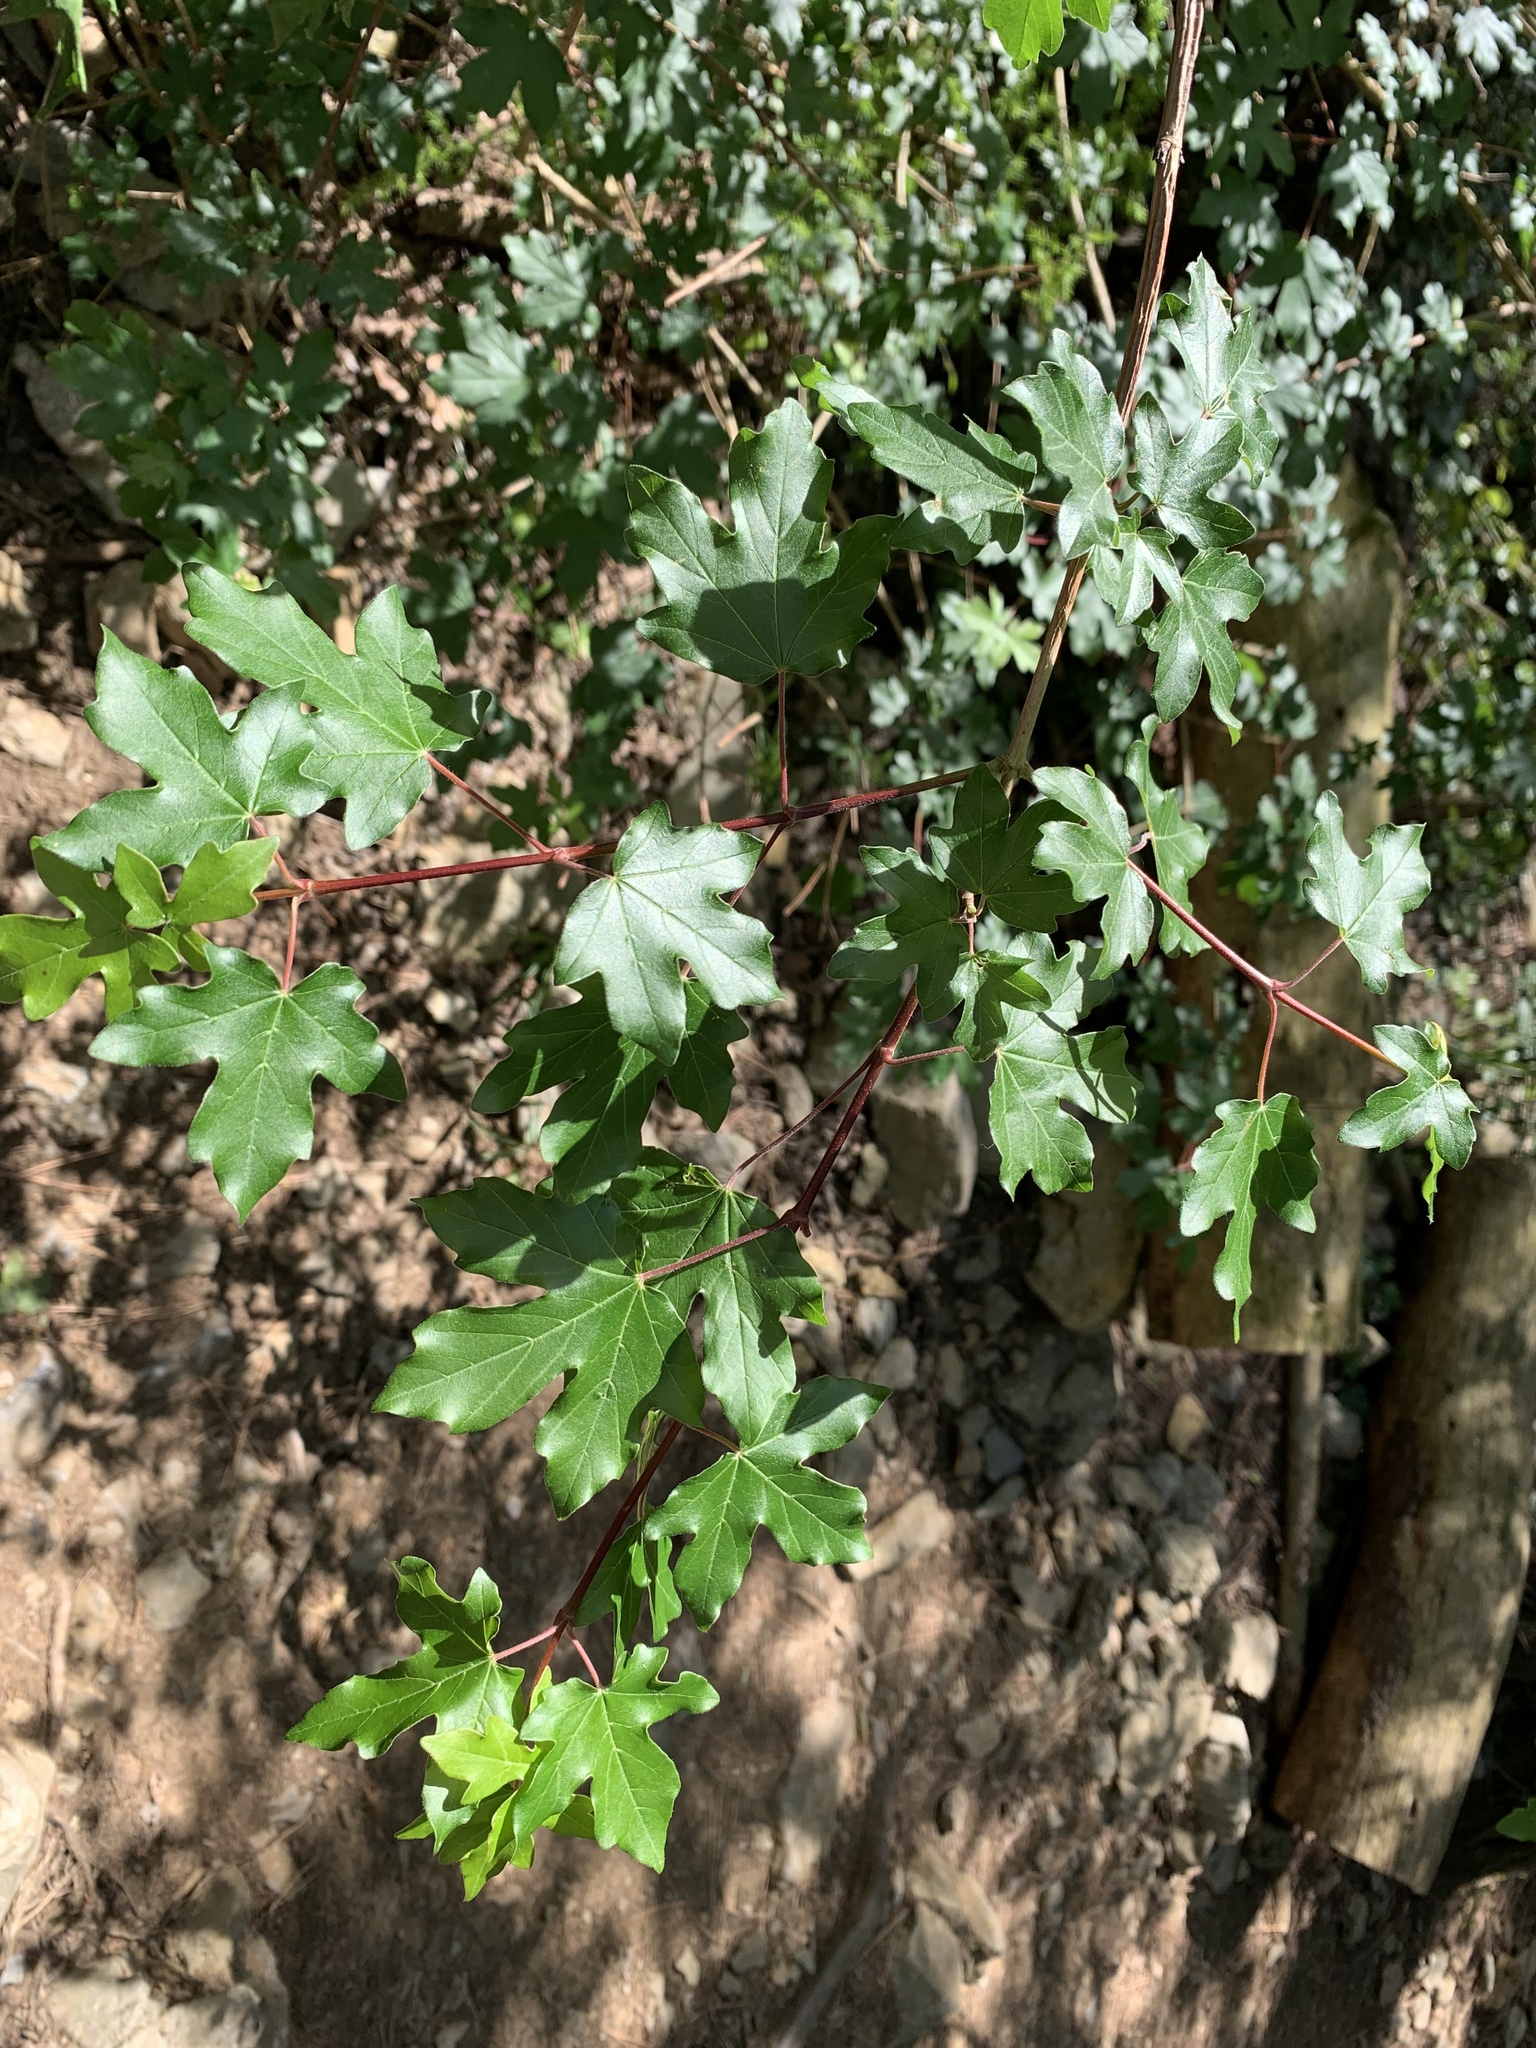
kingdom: Plantae
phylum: Tracheophyta
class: Magnoliopsida
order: Sapindales
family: Sapindaceae
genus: Acer
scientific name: Acer campestre
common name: Field maple
